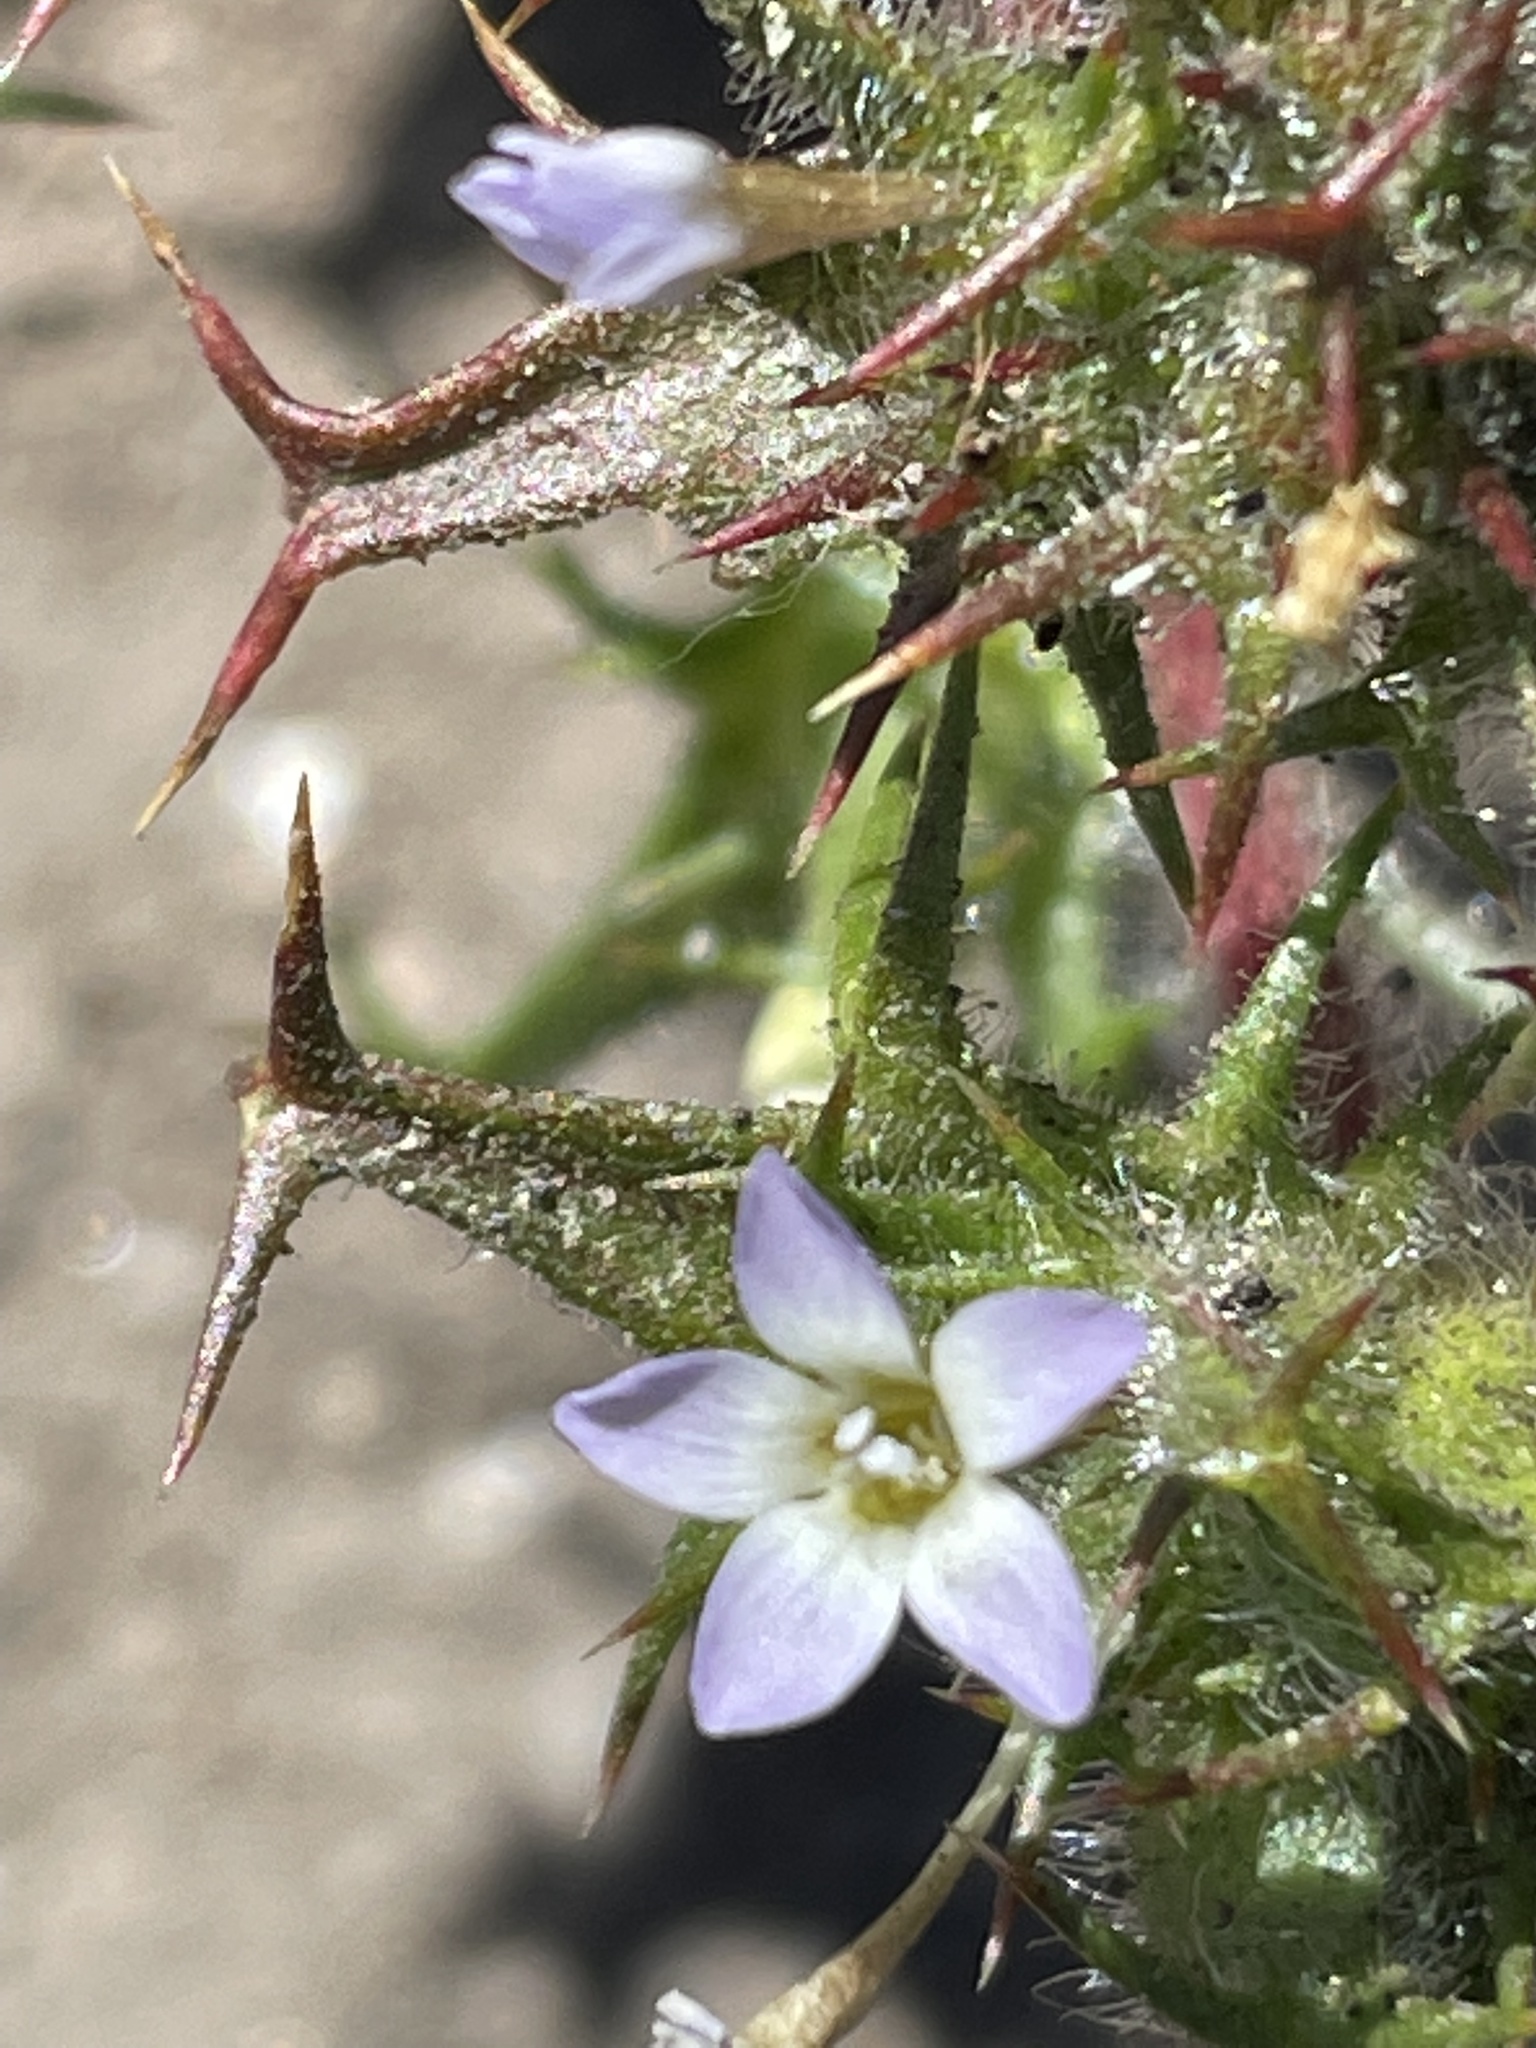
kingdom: Plantae
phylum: Tracheophyta
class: Magnoliopsida
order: Ericales
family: Polemoniaceae
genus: Navarretia
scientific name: Navarretia hamata
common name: Hooked navarretia
